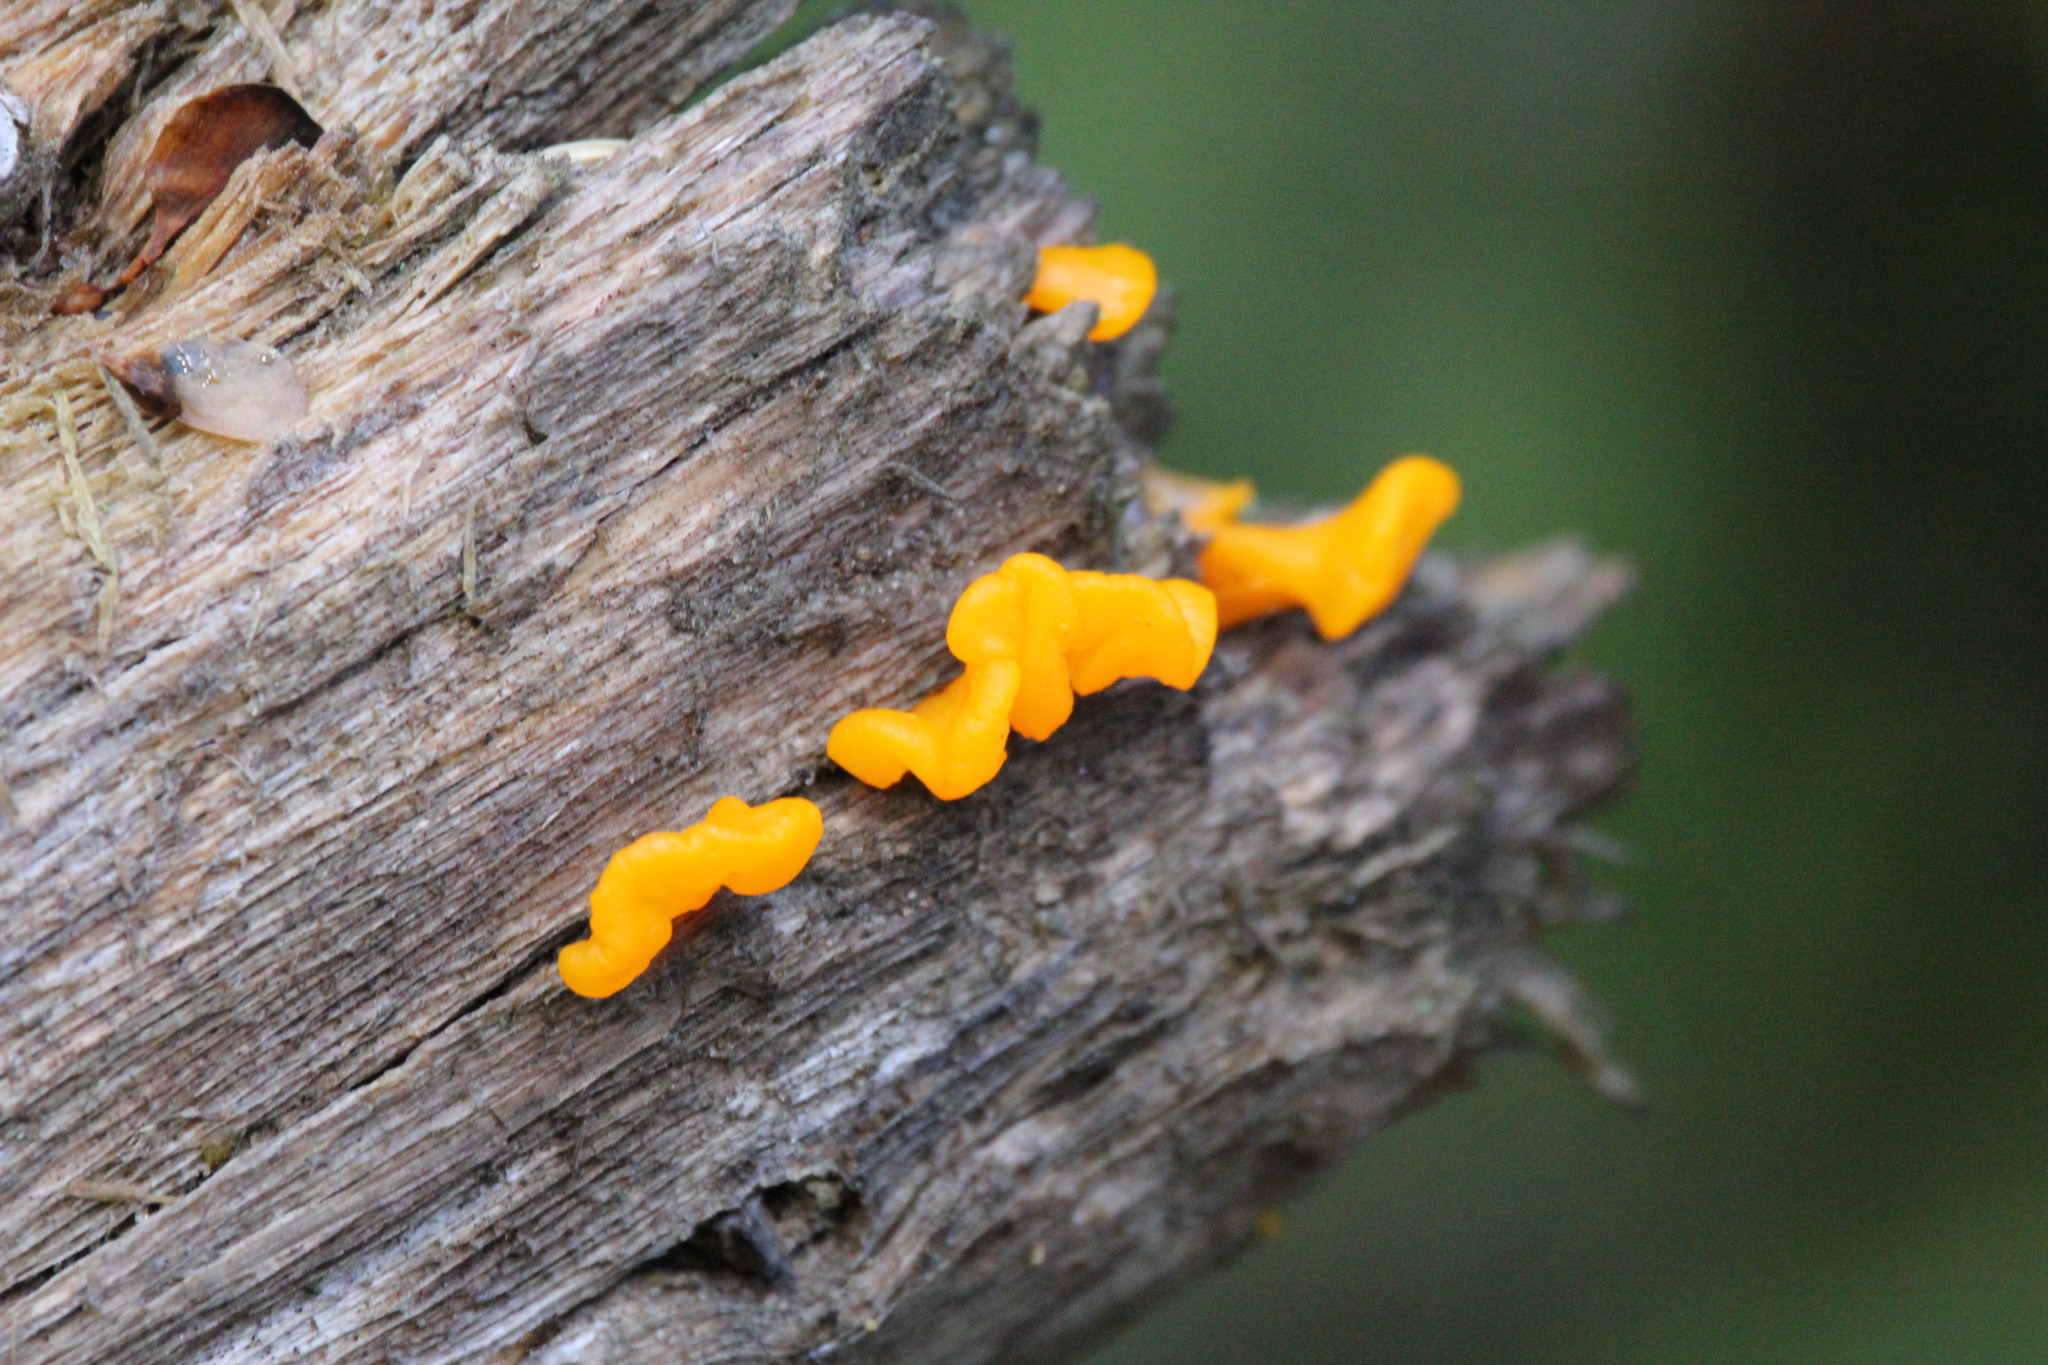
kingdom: Fungi
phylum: Basidiomycota
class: Dacrymycetes
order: Dacrymycetales
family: Dacrymycetaceae
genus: Dacrymyces
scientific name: Dacrymyces chrysospermus
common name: Orange jelly spot
